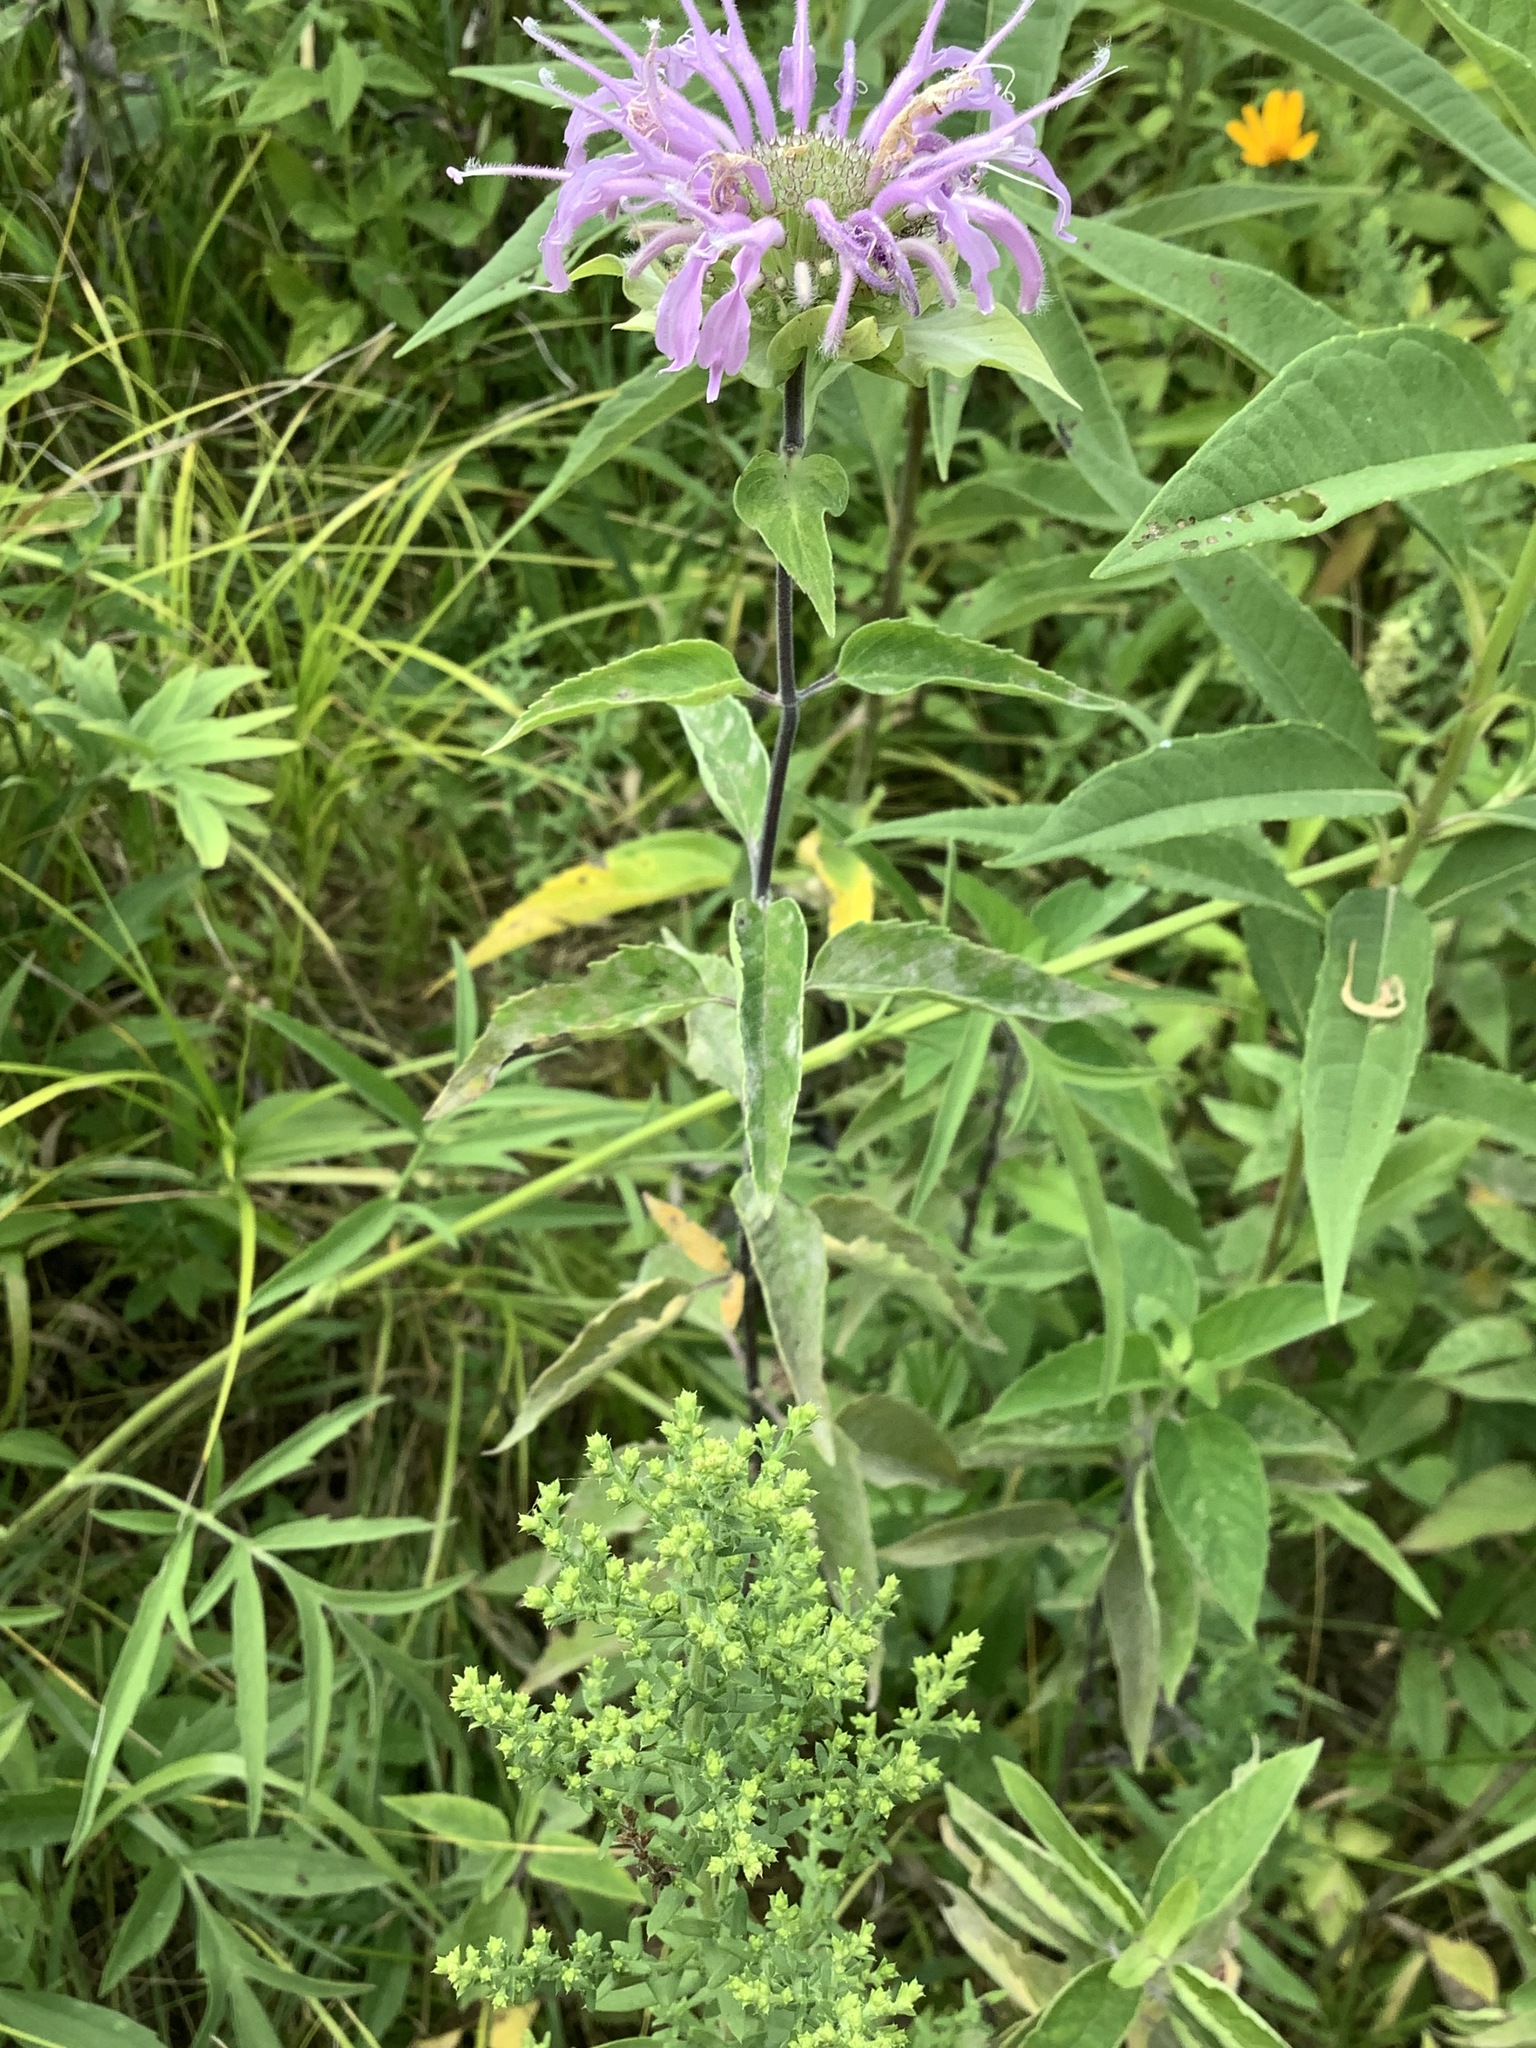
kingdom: Plantae
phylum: Tracheophyta
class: Magnoliopsida
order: Lamiales
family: Lamiaceae
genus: Monarda
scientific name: Monarda fistulosa
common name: Purple beebalm
